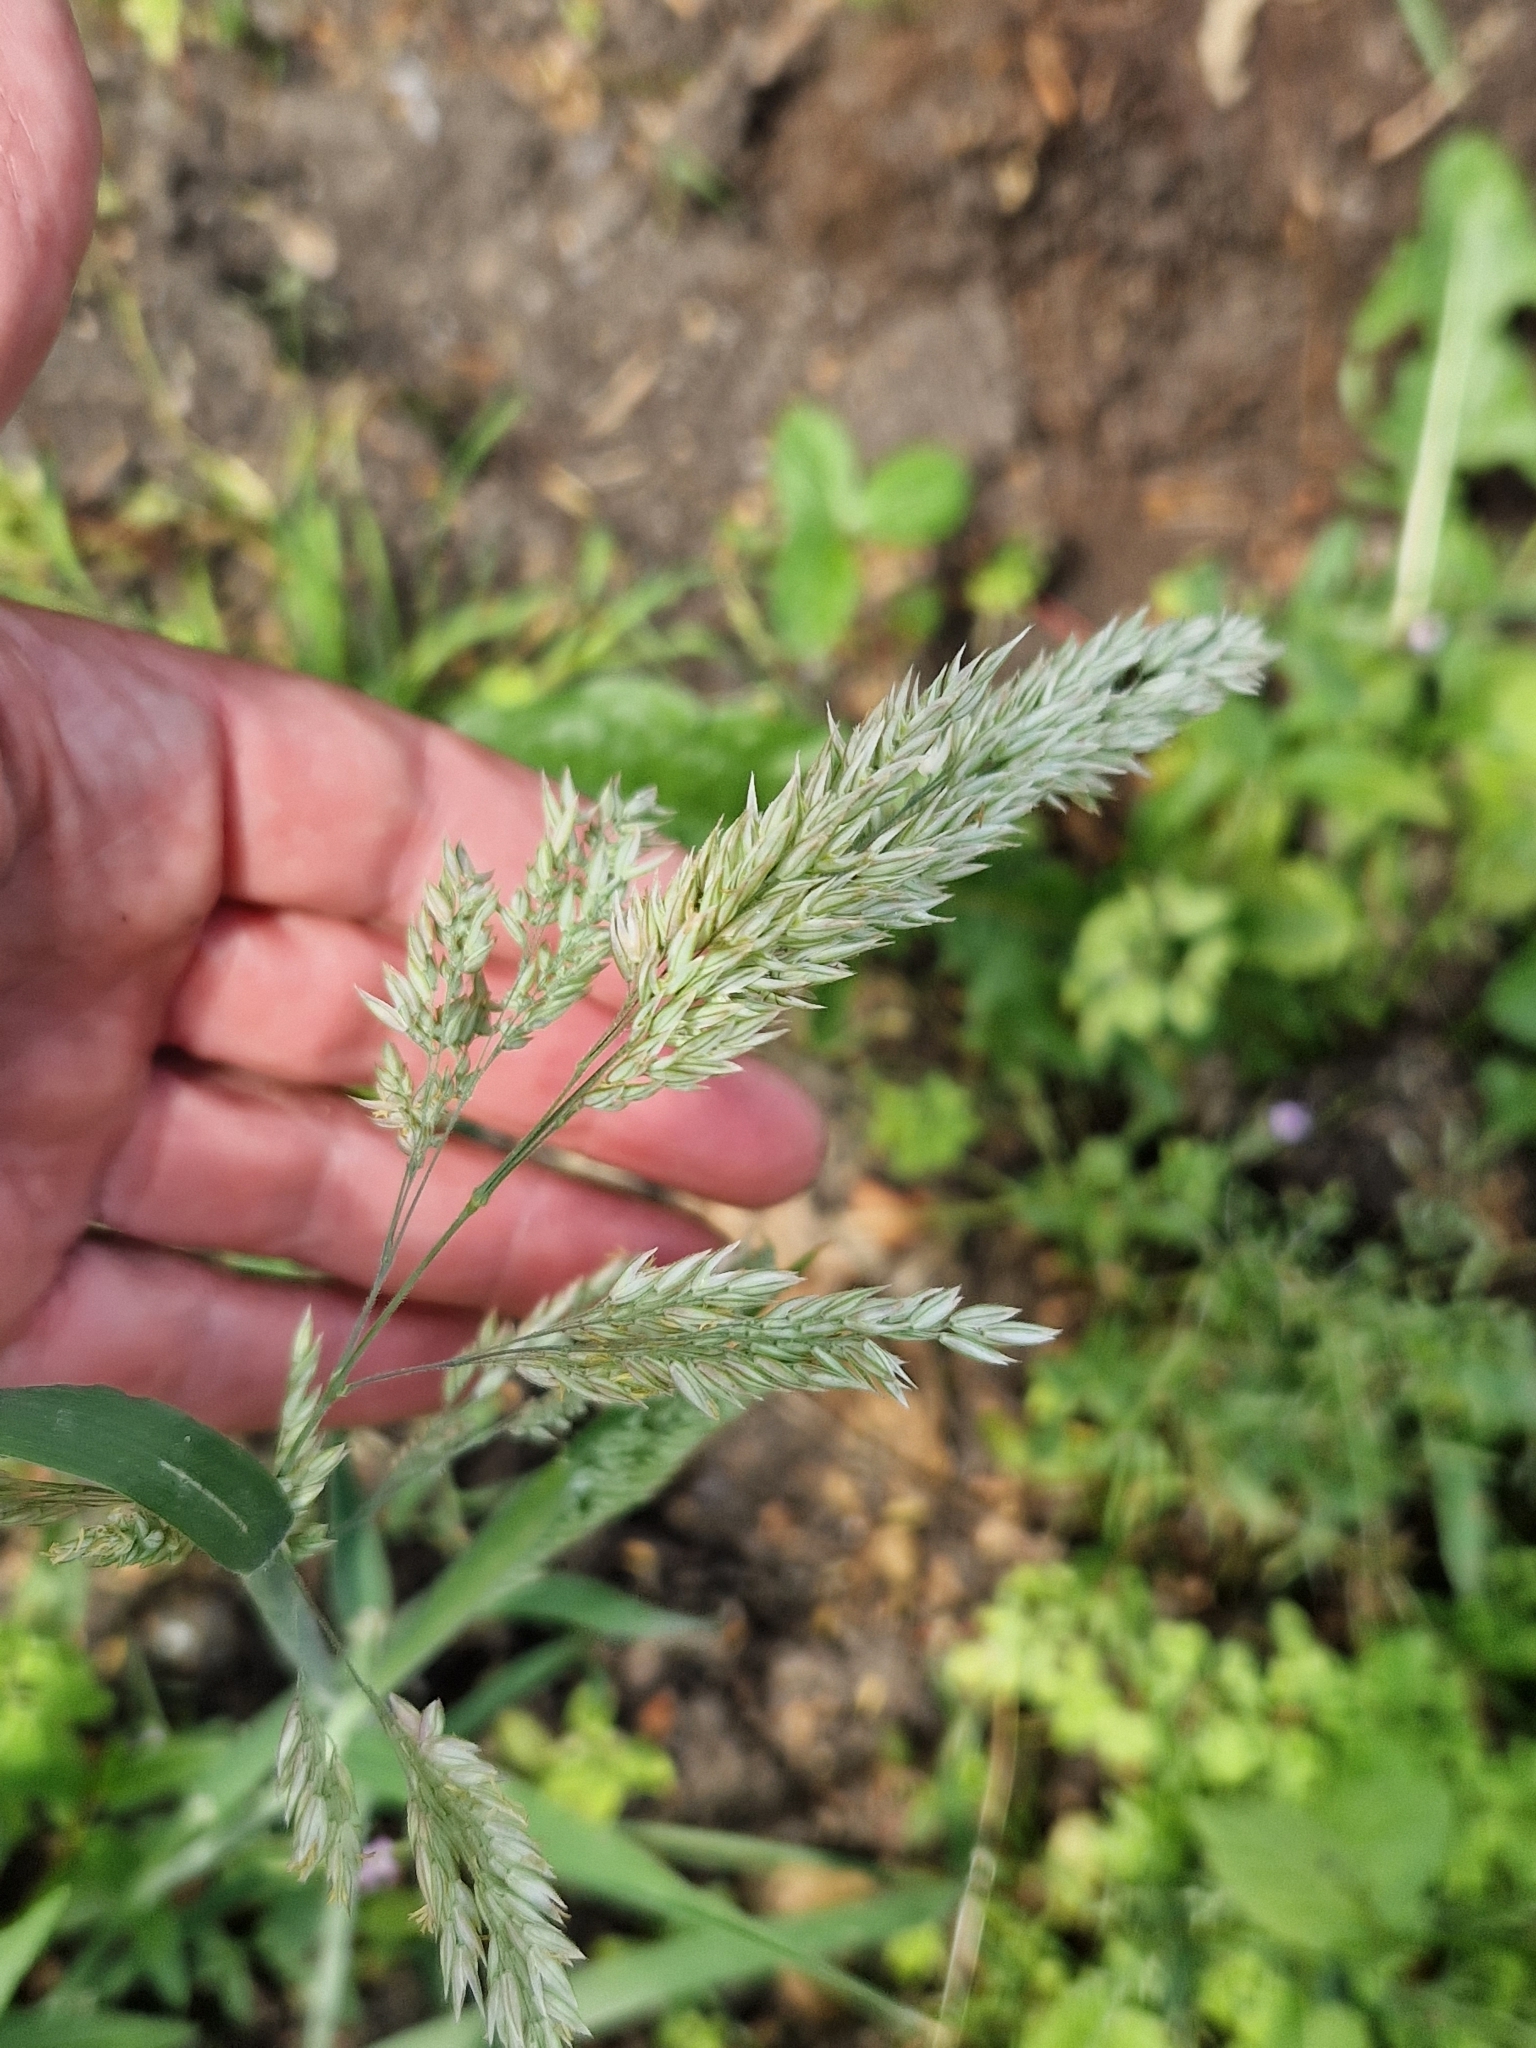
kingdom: Plantae
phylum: Tracheophyta
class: Liliopsida
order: Poales
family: Poaceae
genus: Holcus
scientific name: Holcus lanatus
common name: Yorkshire-fog
